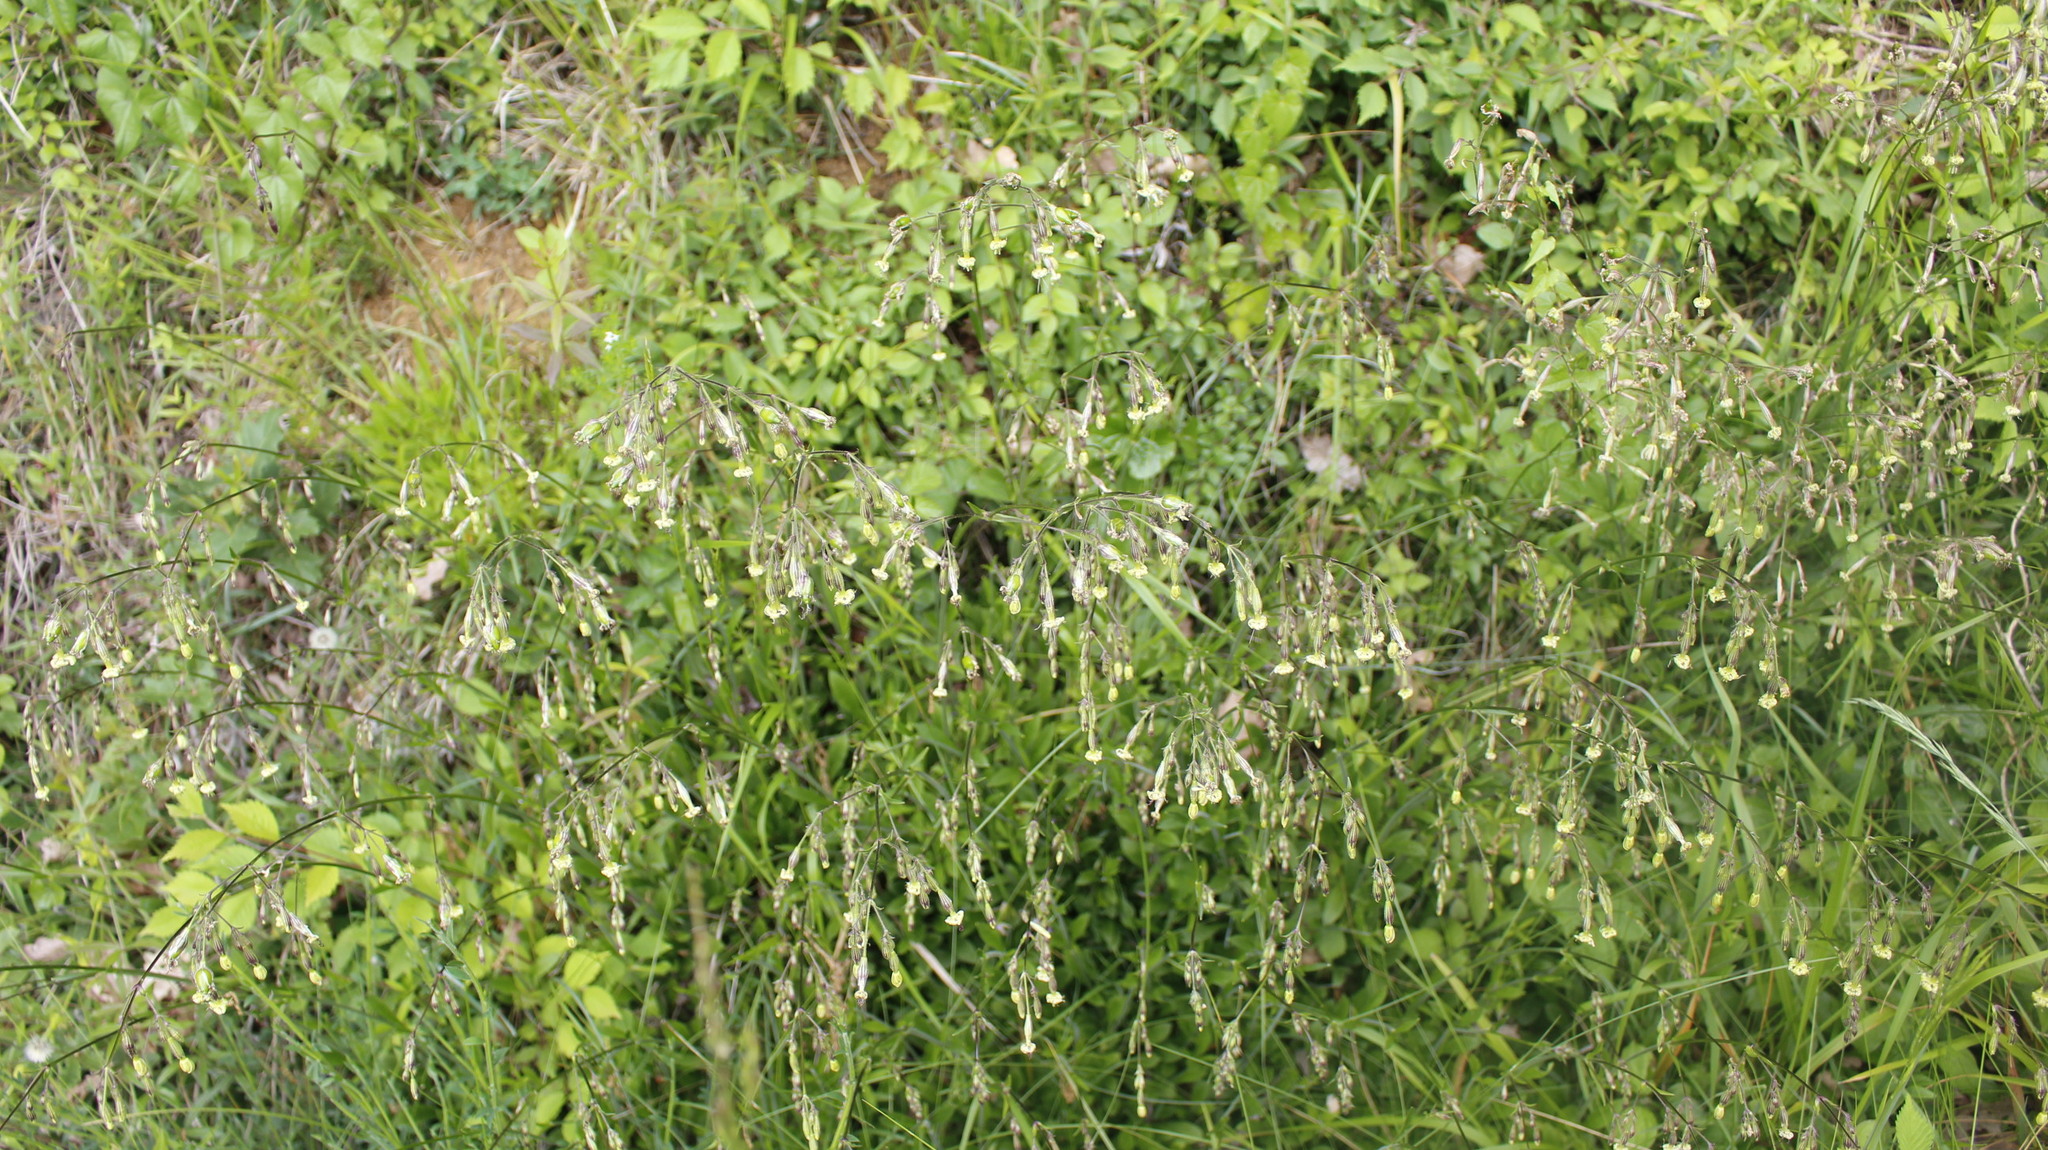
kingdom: Plantae
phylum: Tracheophyta
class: Magnoliopsida
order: Caryophyllales
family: Caryophyllaceae
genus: Silene
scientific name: Silene nutans
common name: Nottingham catchfly
